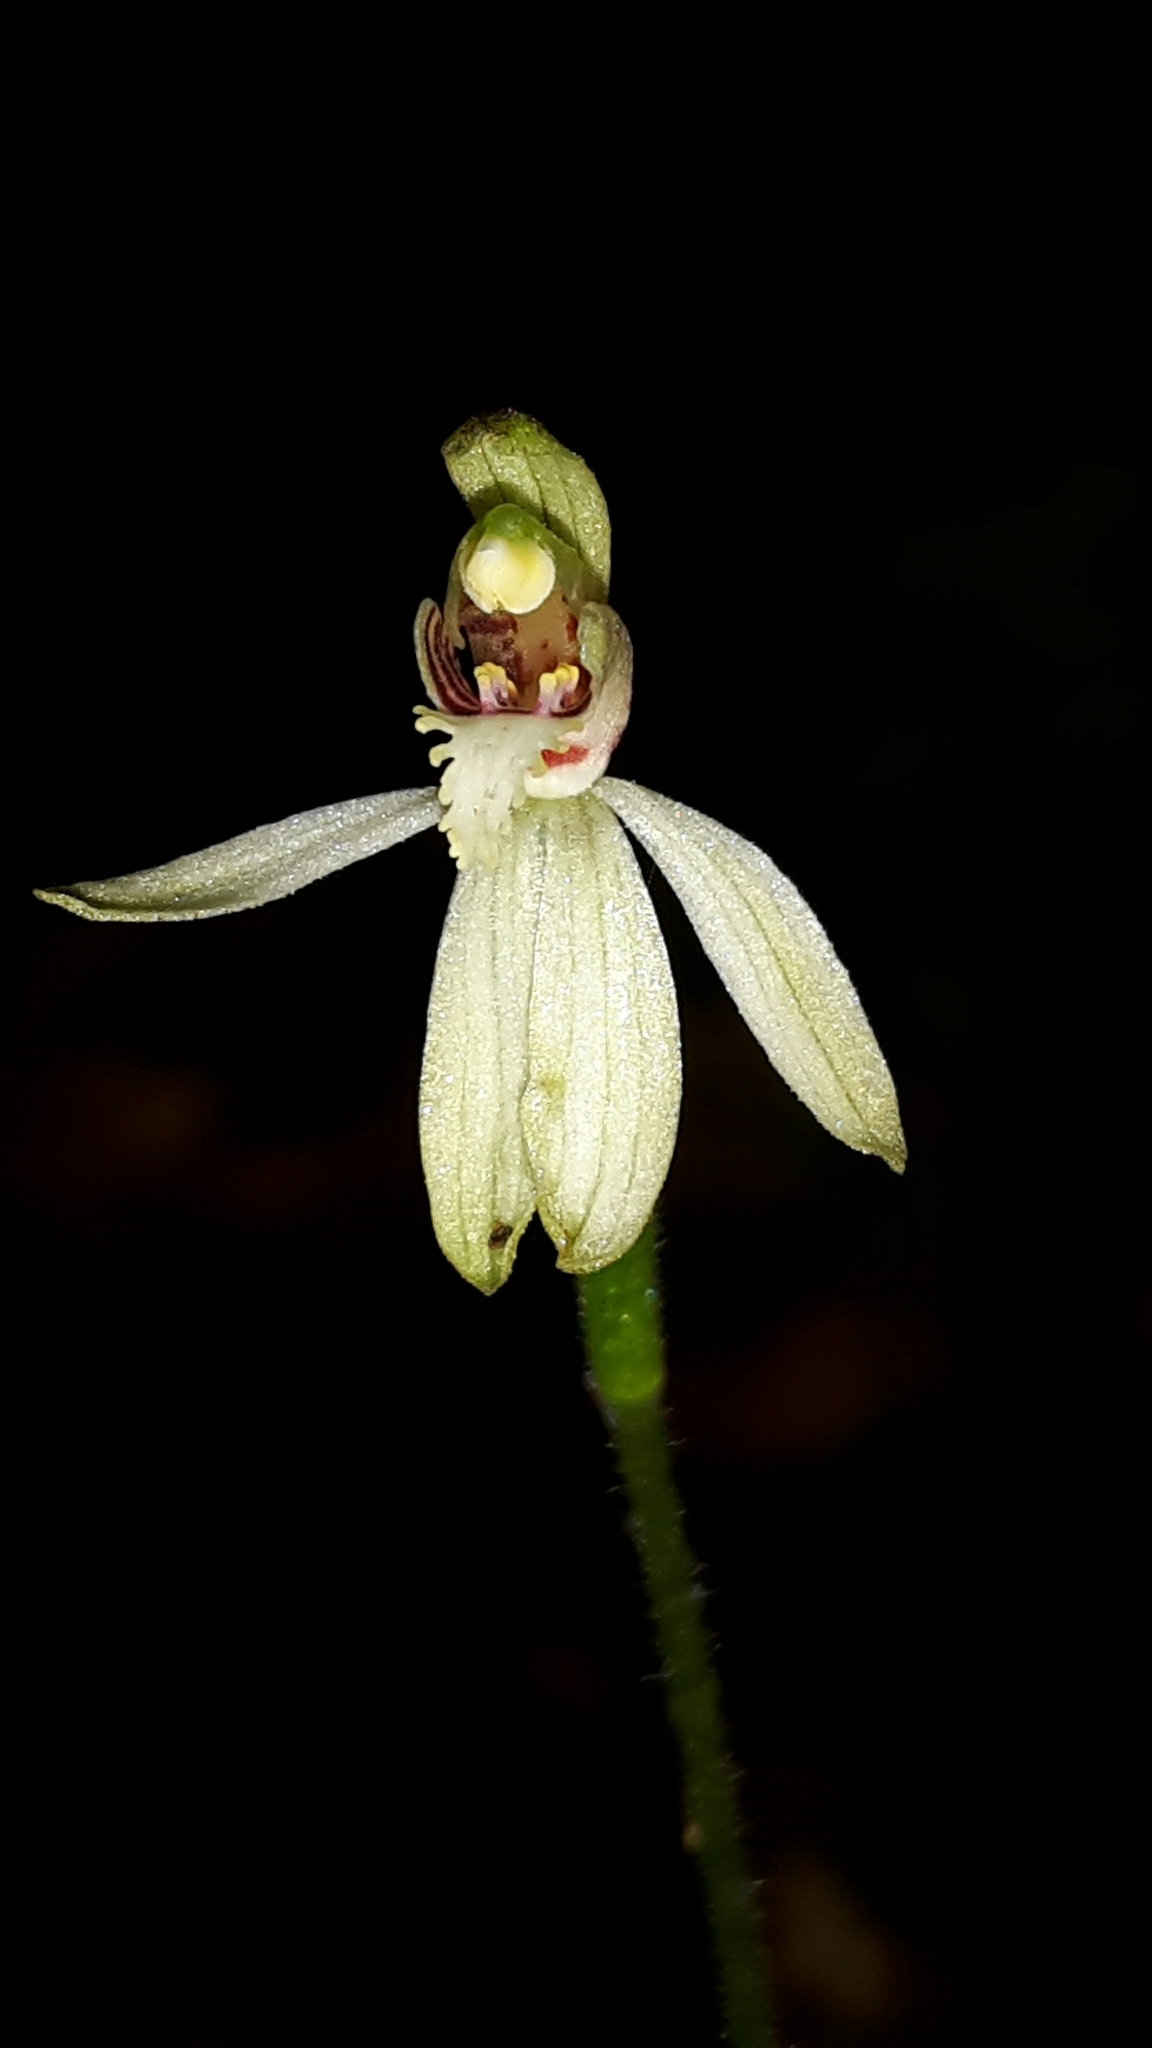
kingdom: Plantae
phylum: Tracheophyta
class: Liliopsida
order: Asparagales
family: Orchidaceae
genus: Caladenia
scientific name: Caladenia chlorostyla
